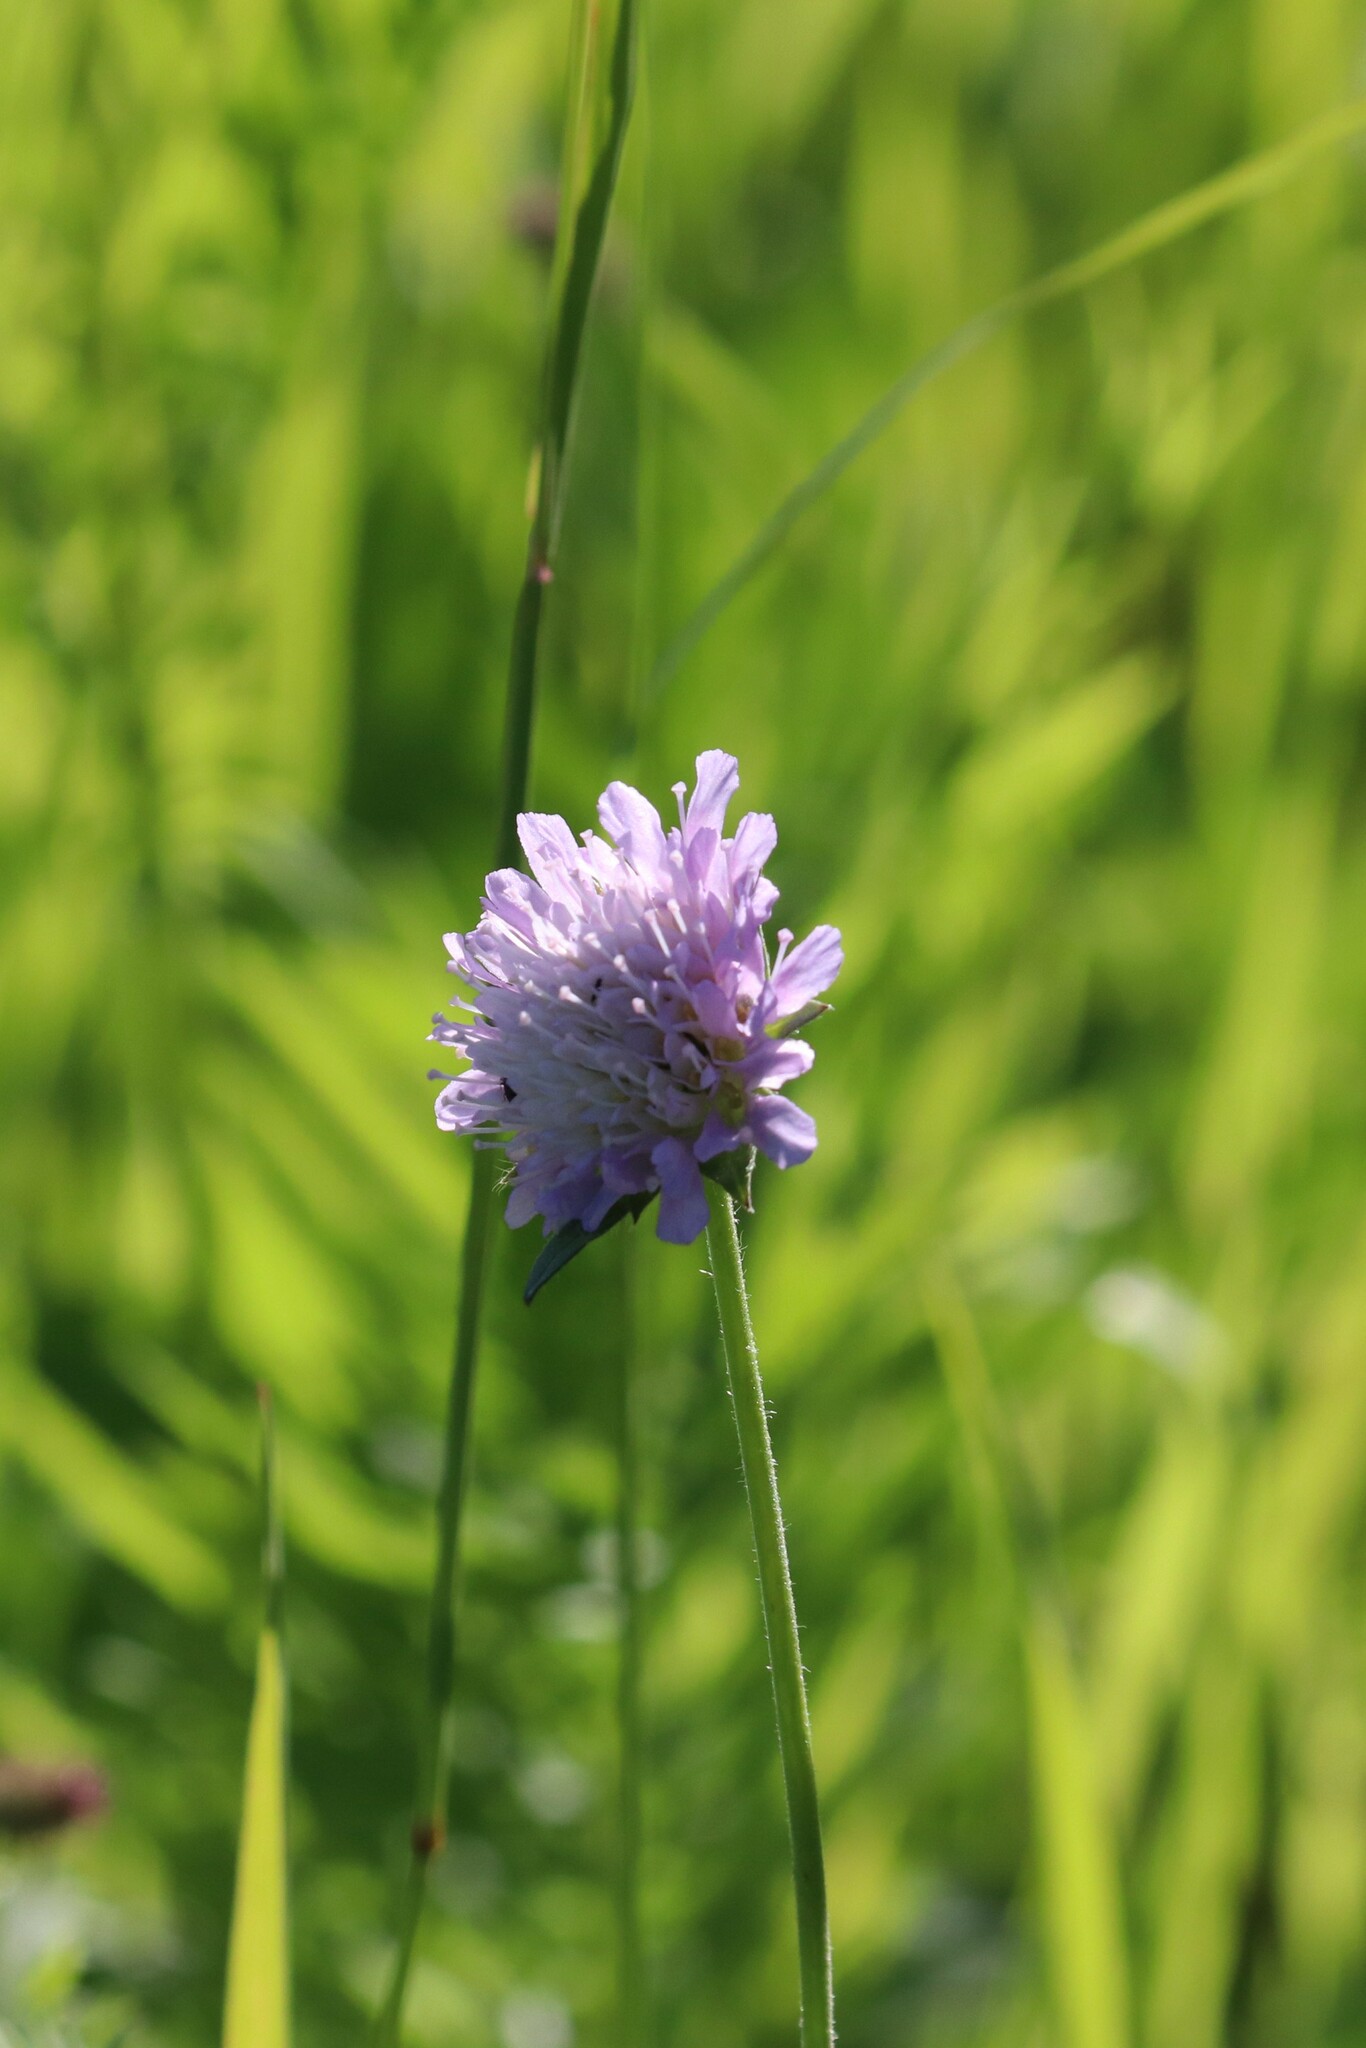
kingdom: Plantae
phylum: Tracheophyta
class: Magnoliopsida
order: Dipsacales
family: Caprifoliaceae
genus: Knautia
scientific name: Knautia arvensis
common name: Field scabiosa
